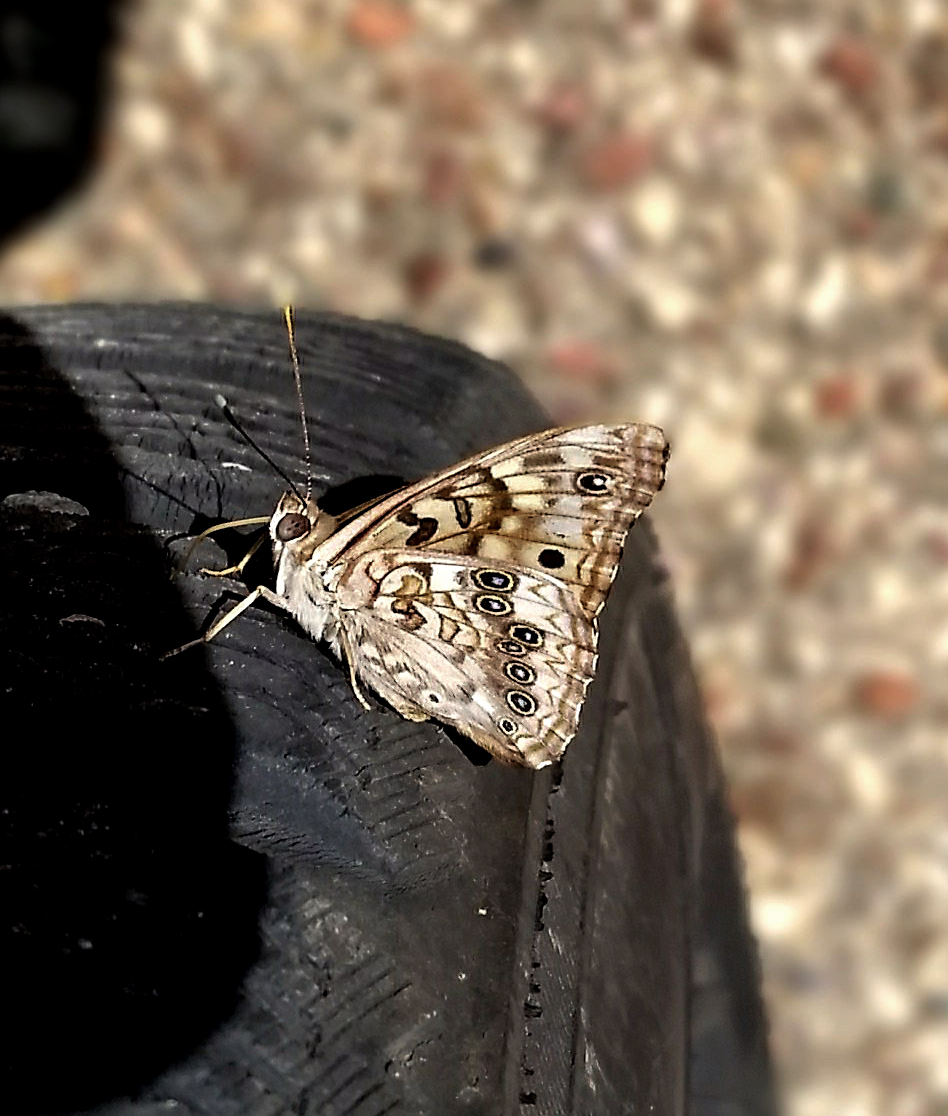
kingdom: Animalia
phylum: Arthropoda
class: Insecta
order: Lepidoptera
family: Nymphalidae
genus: Asterocampa
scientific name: Asterocampa celtis
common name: Hackberry emperor
